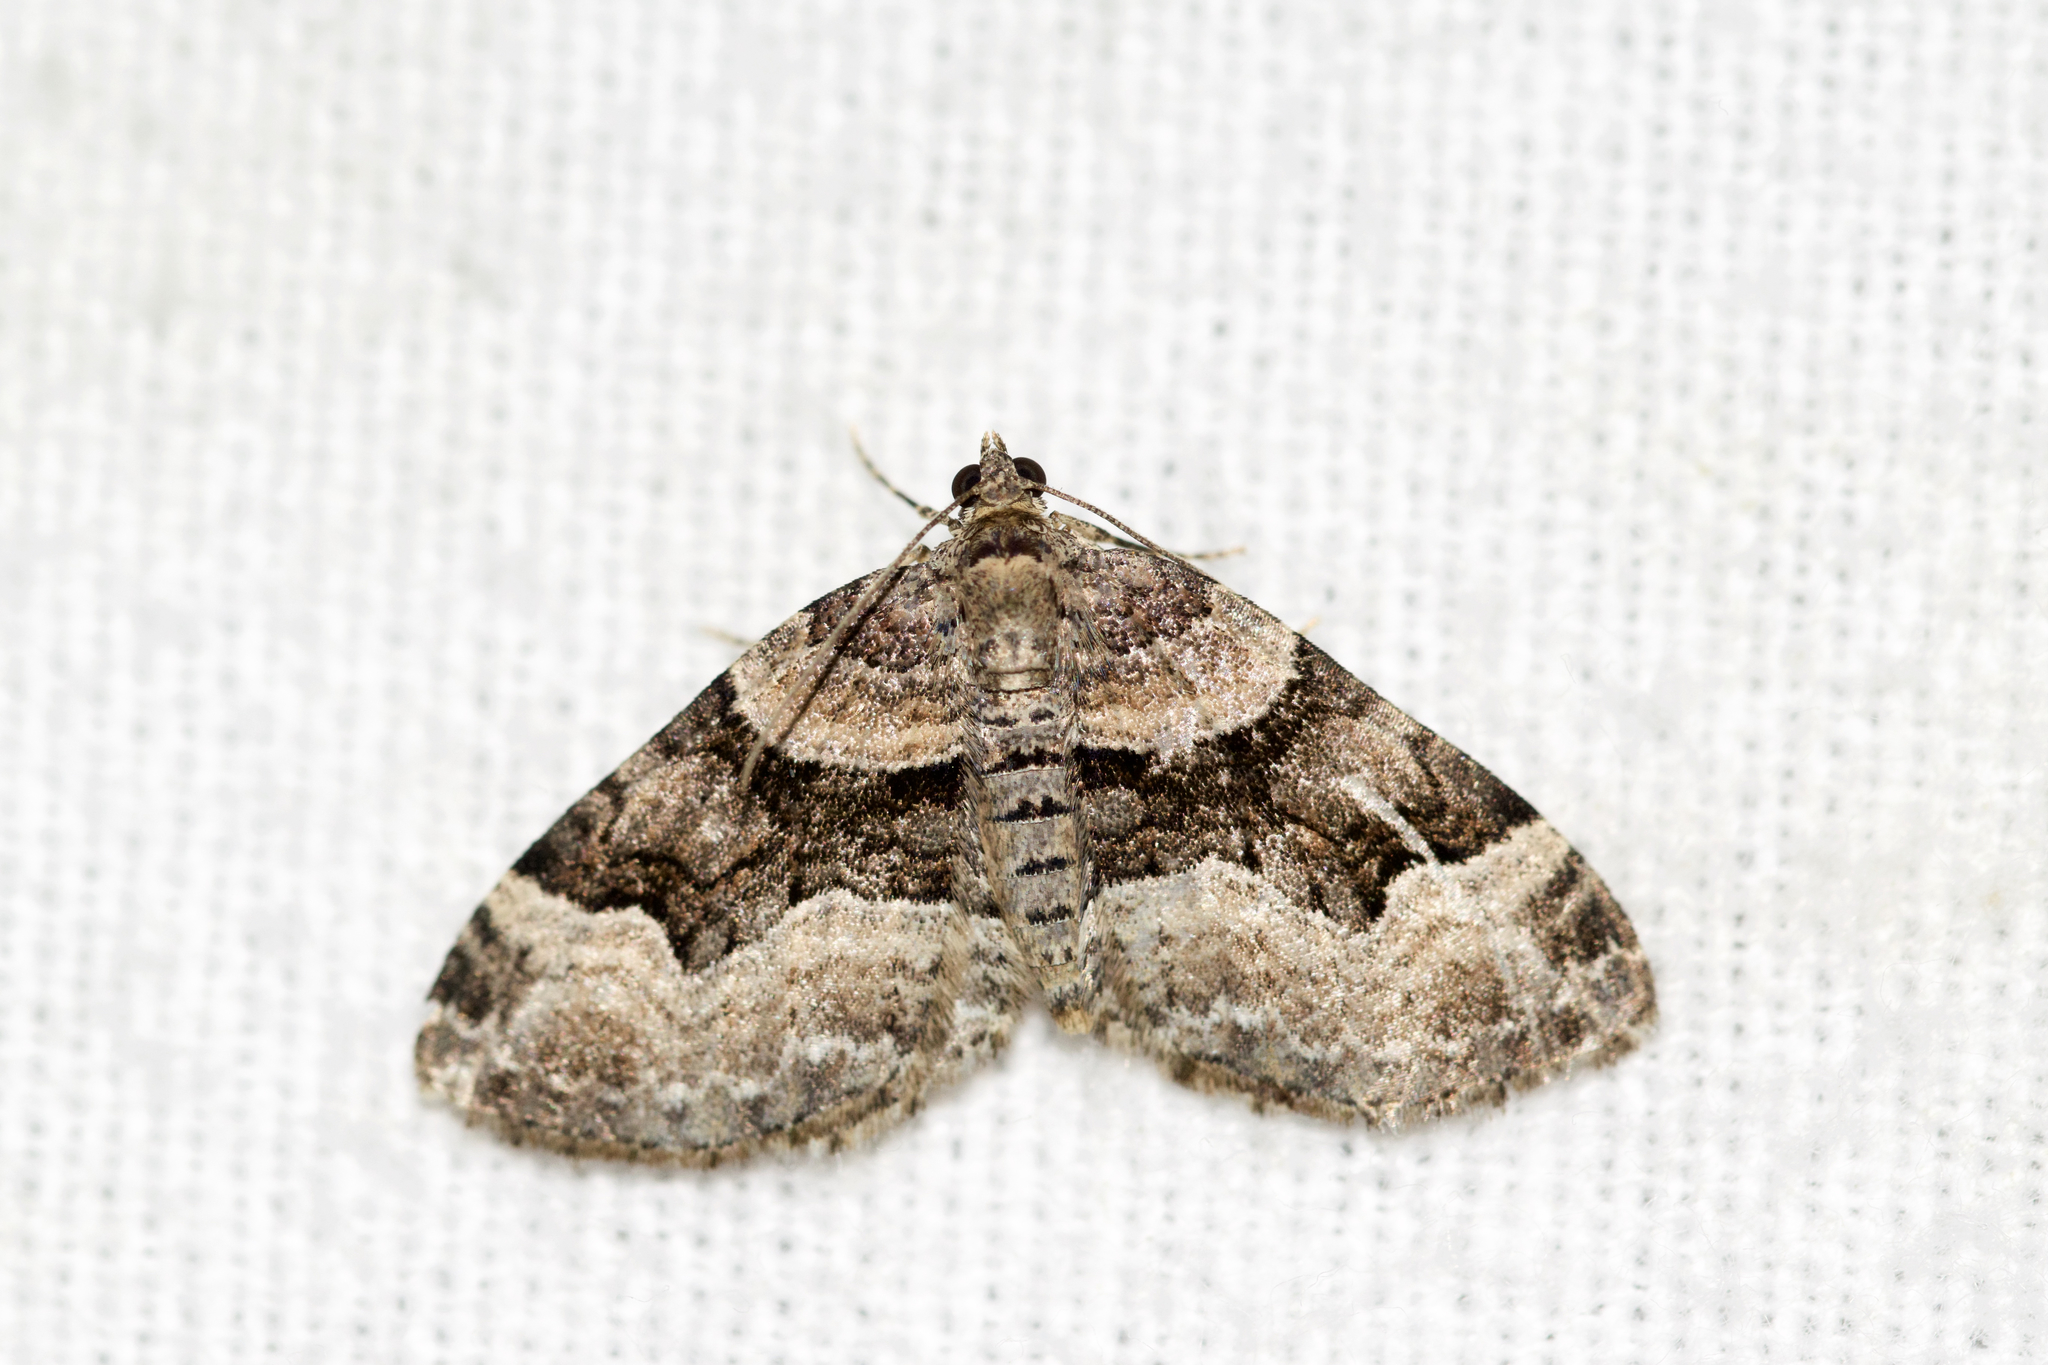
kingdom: Animalia
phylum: Arthropoda
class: Insecta
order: Lepidoptera
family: Geometridae
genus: Xanthorhoe
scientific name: Xanthorhoe lacustrata
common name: Toothed brown carpet
